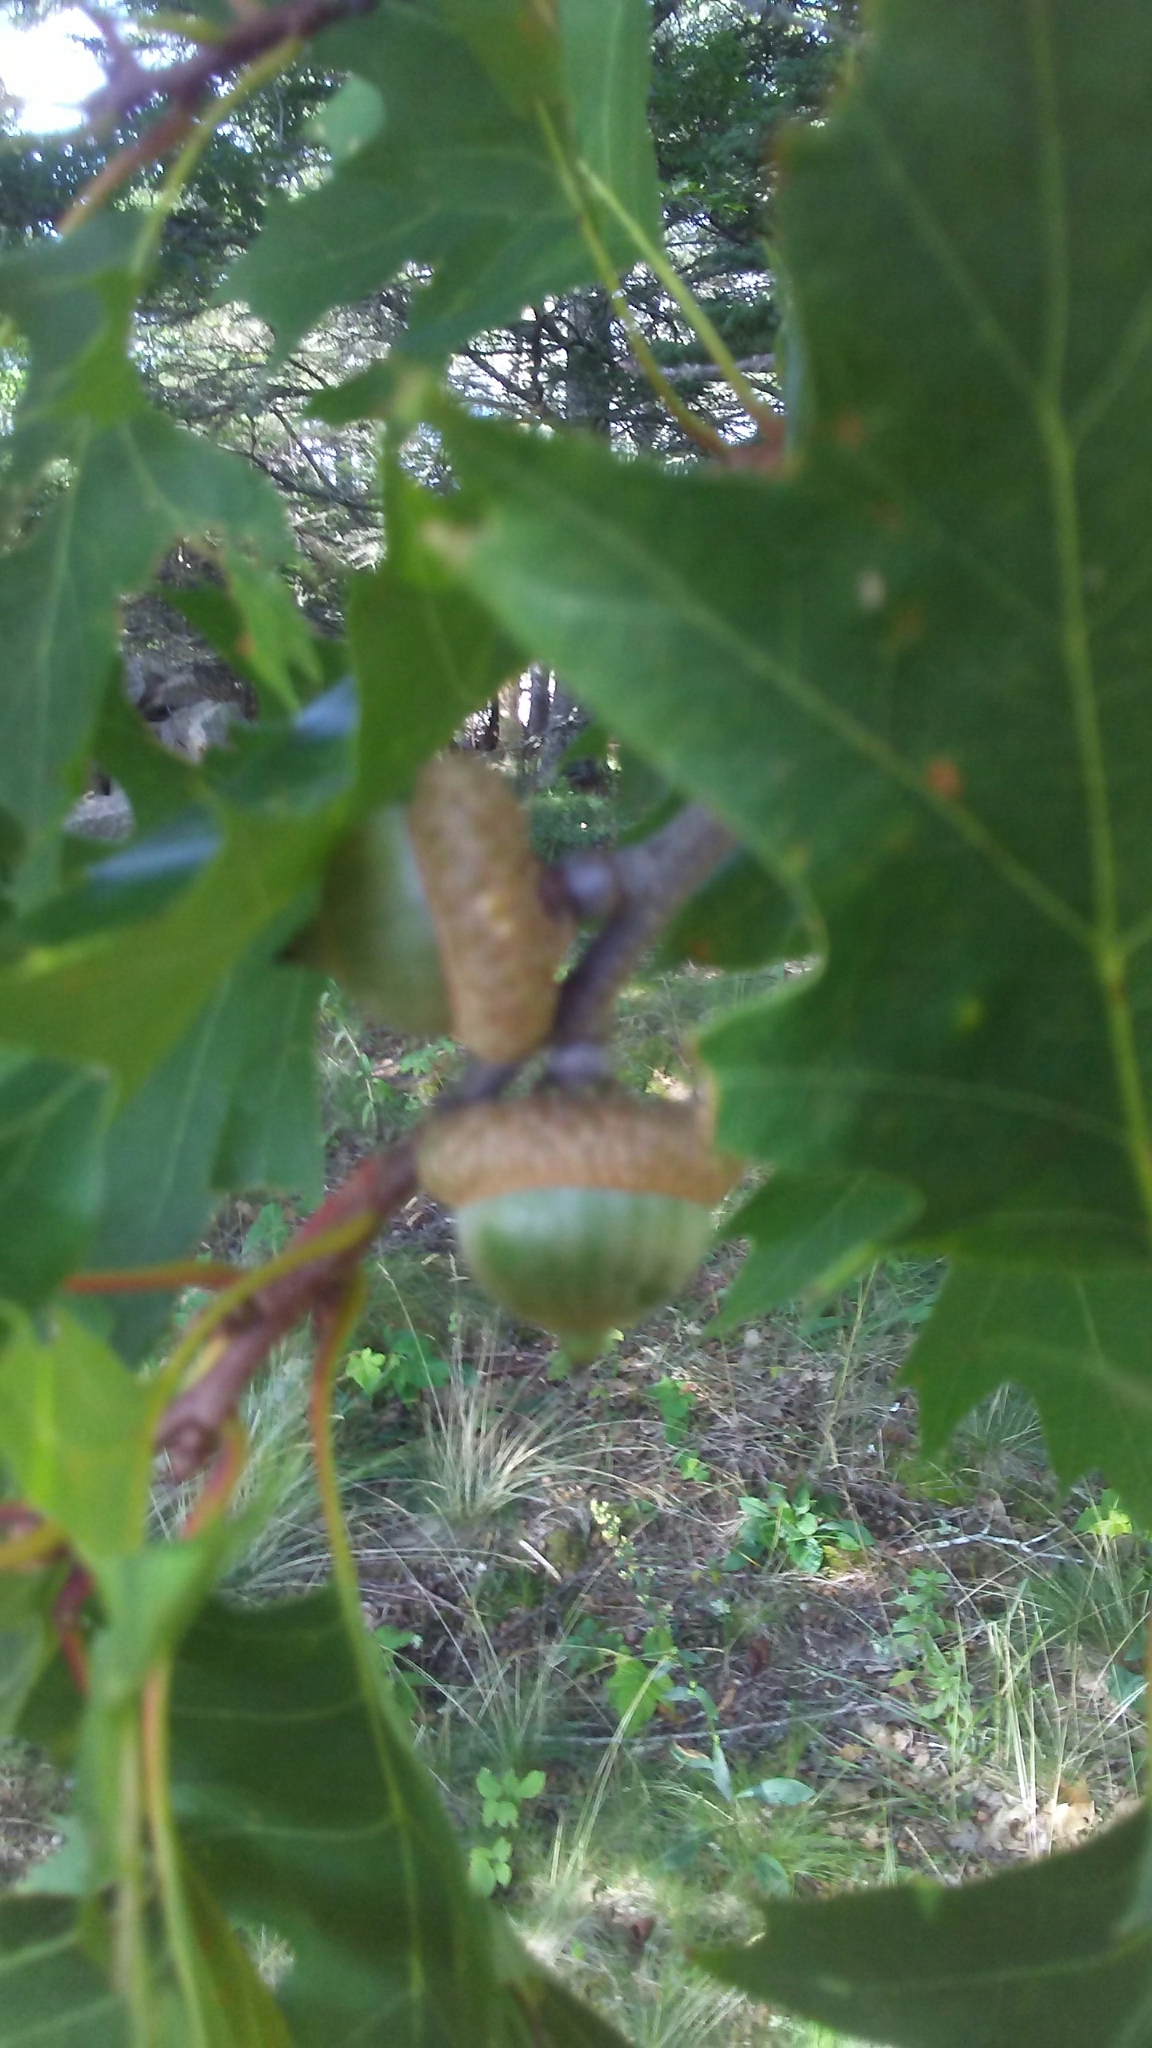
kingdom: Plantae
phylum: Tracheophyta
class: Magnoliopsida
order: Fagales
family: Fagaceae
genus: Quercus
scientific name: Quercus rubra
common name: Red oak
